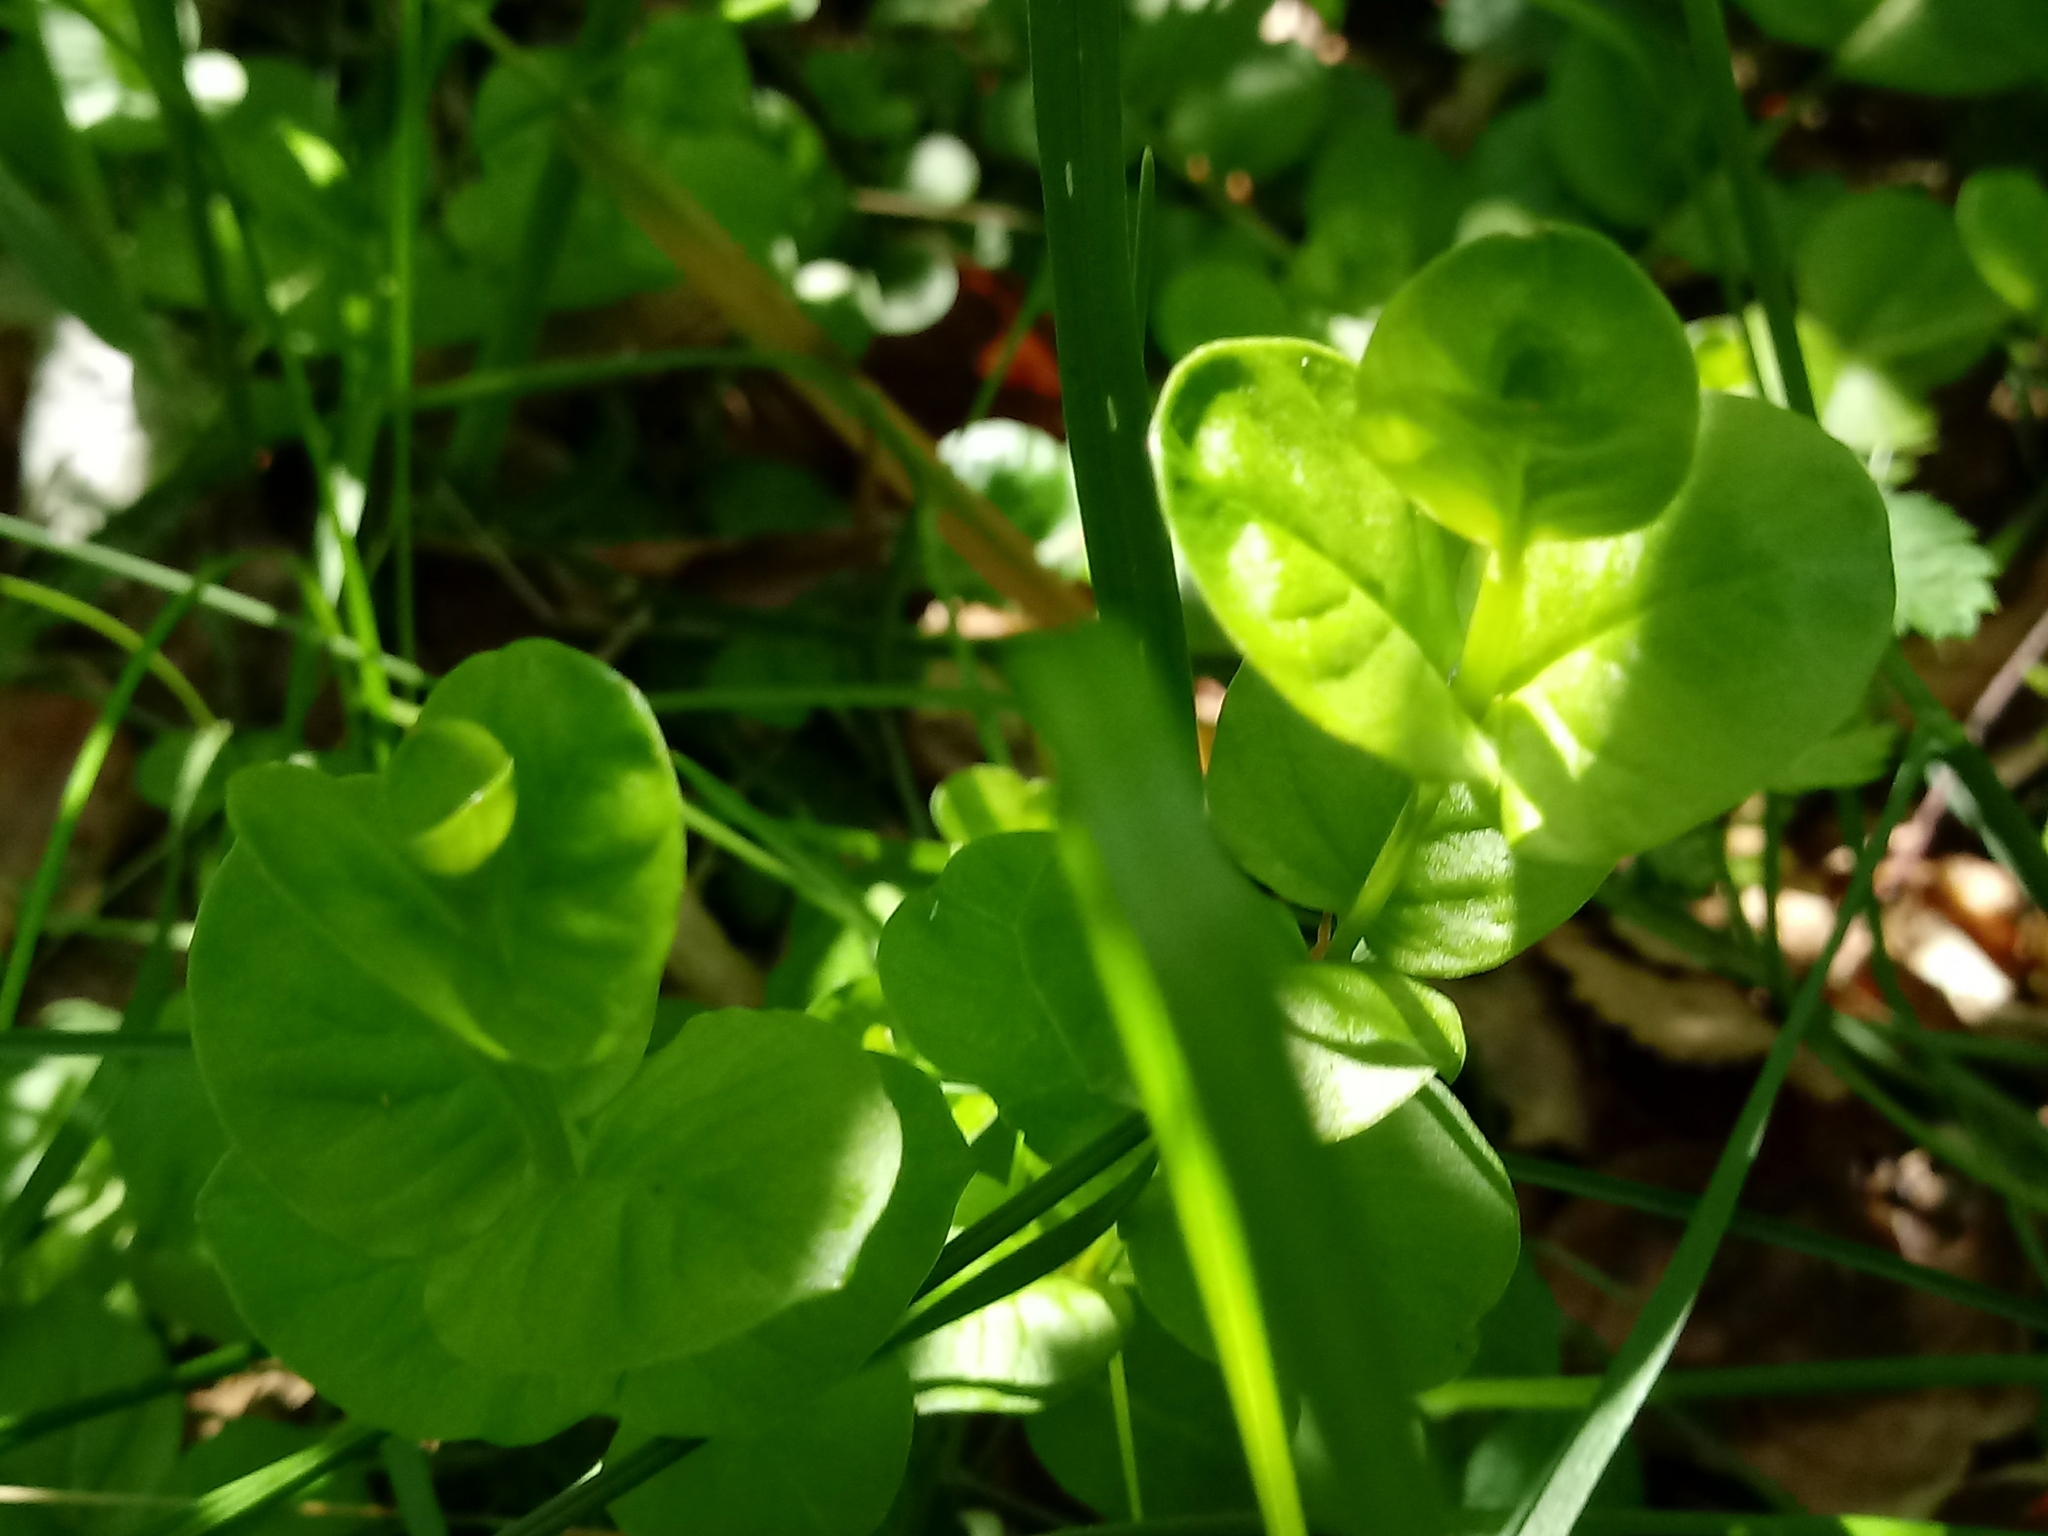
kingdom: Plantae
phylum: Tracheophyta
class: Magnoliopsida
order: Ericales
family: Primulaceae
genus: Lysimachia
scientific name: Lysimachia nummularia
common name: Moneywort
